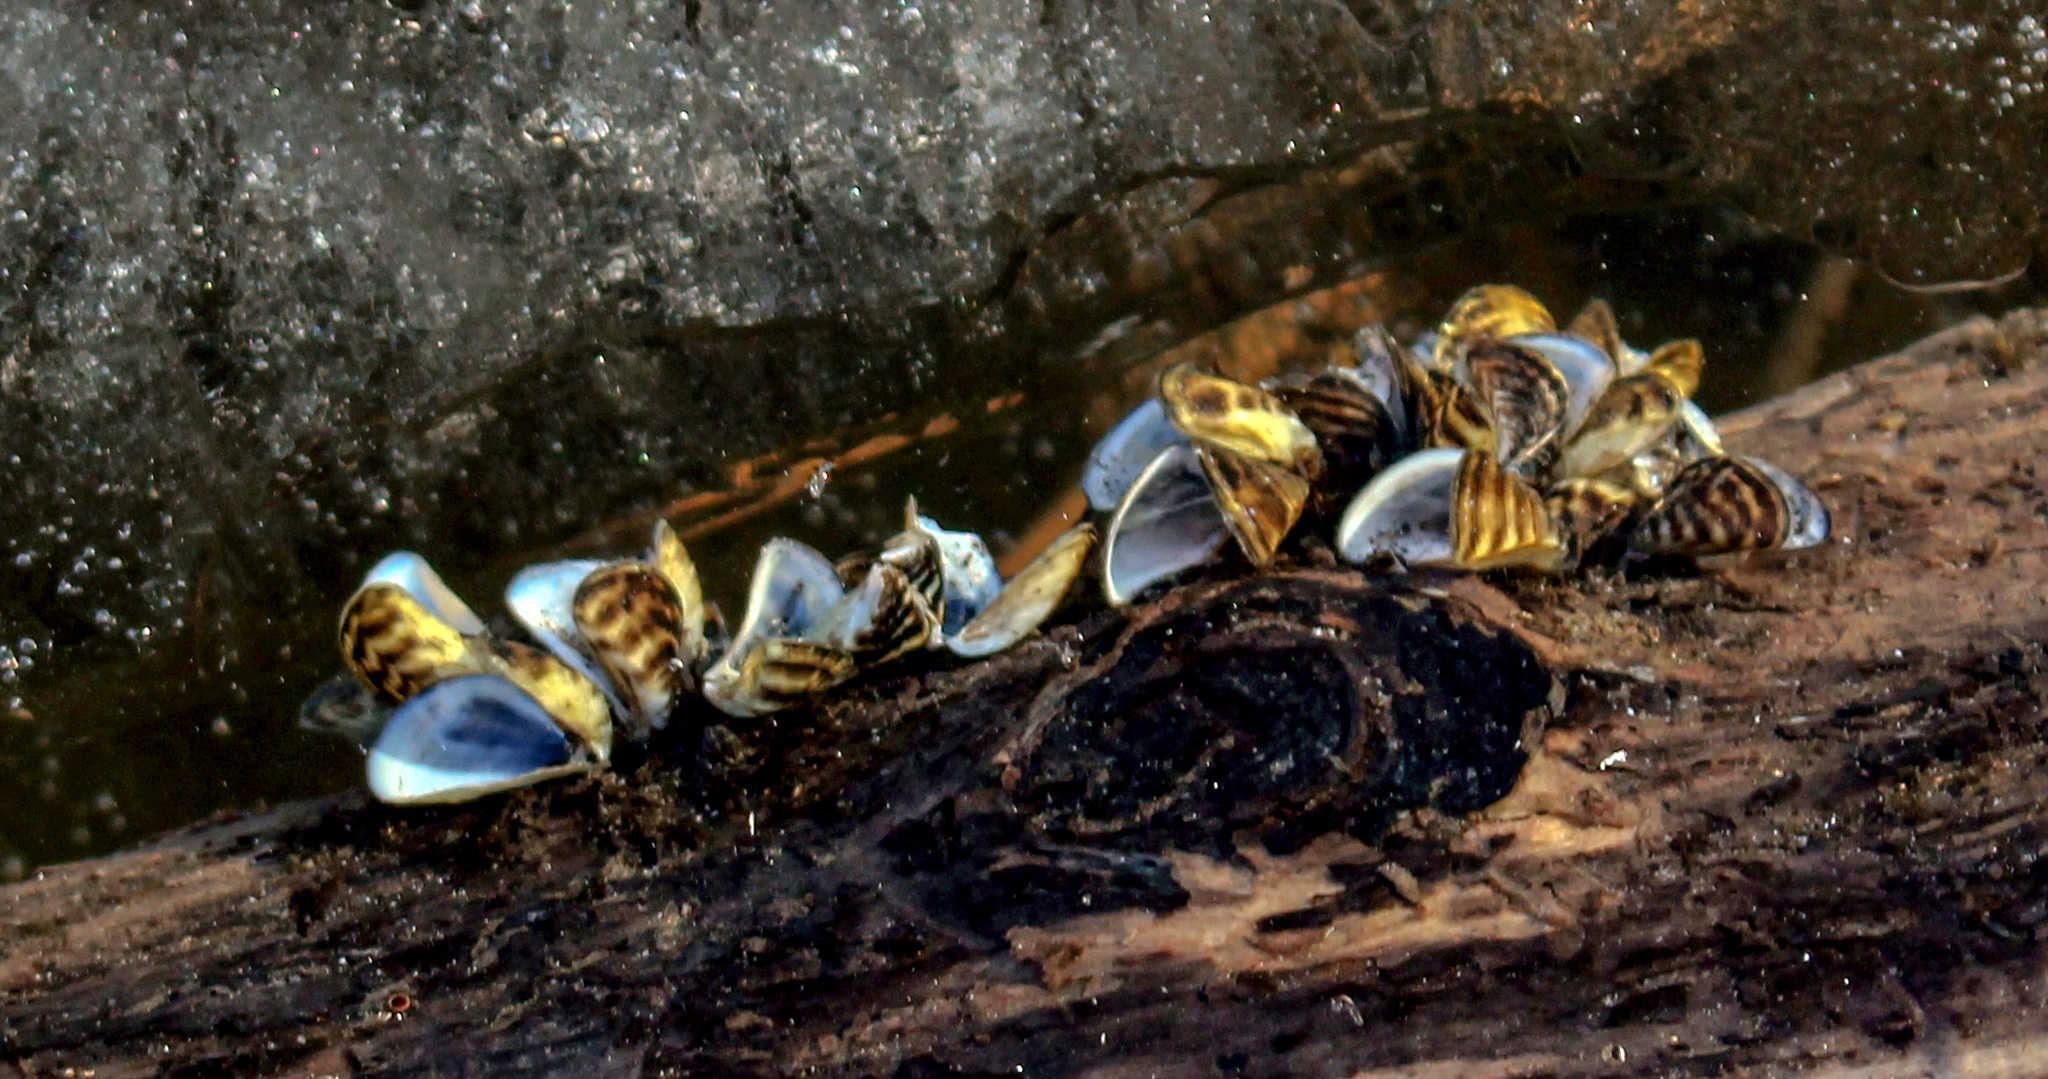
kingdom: Animalia
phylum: Mollusca
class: Bivalvia
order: Myida
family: Dreissenidae
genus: Dreissena
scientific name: Dreissena polymorpha
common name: Zebra mussel
